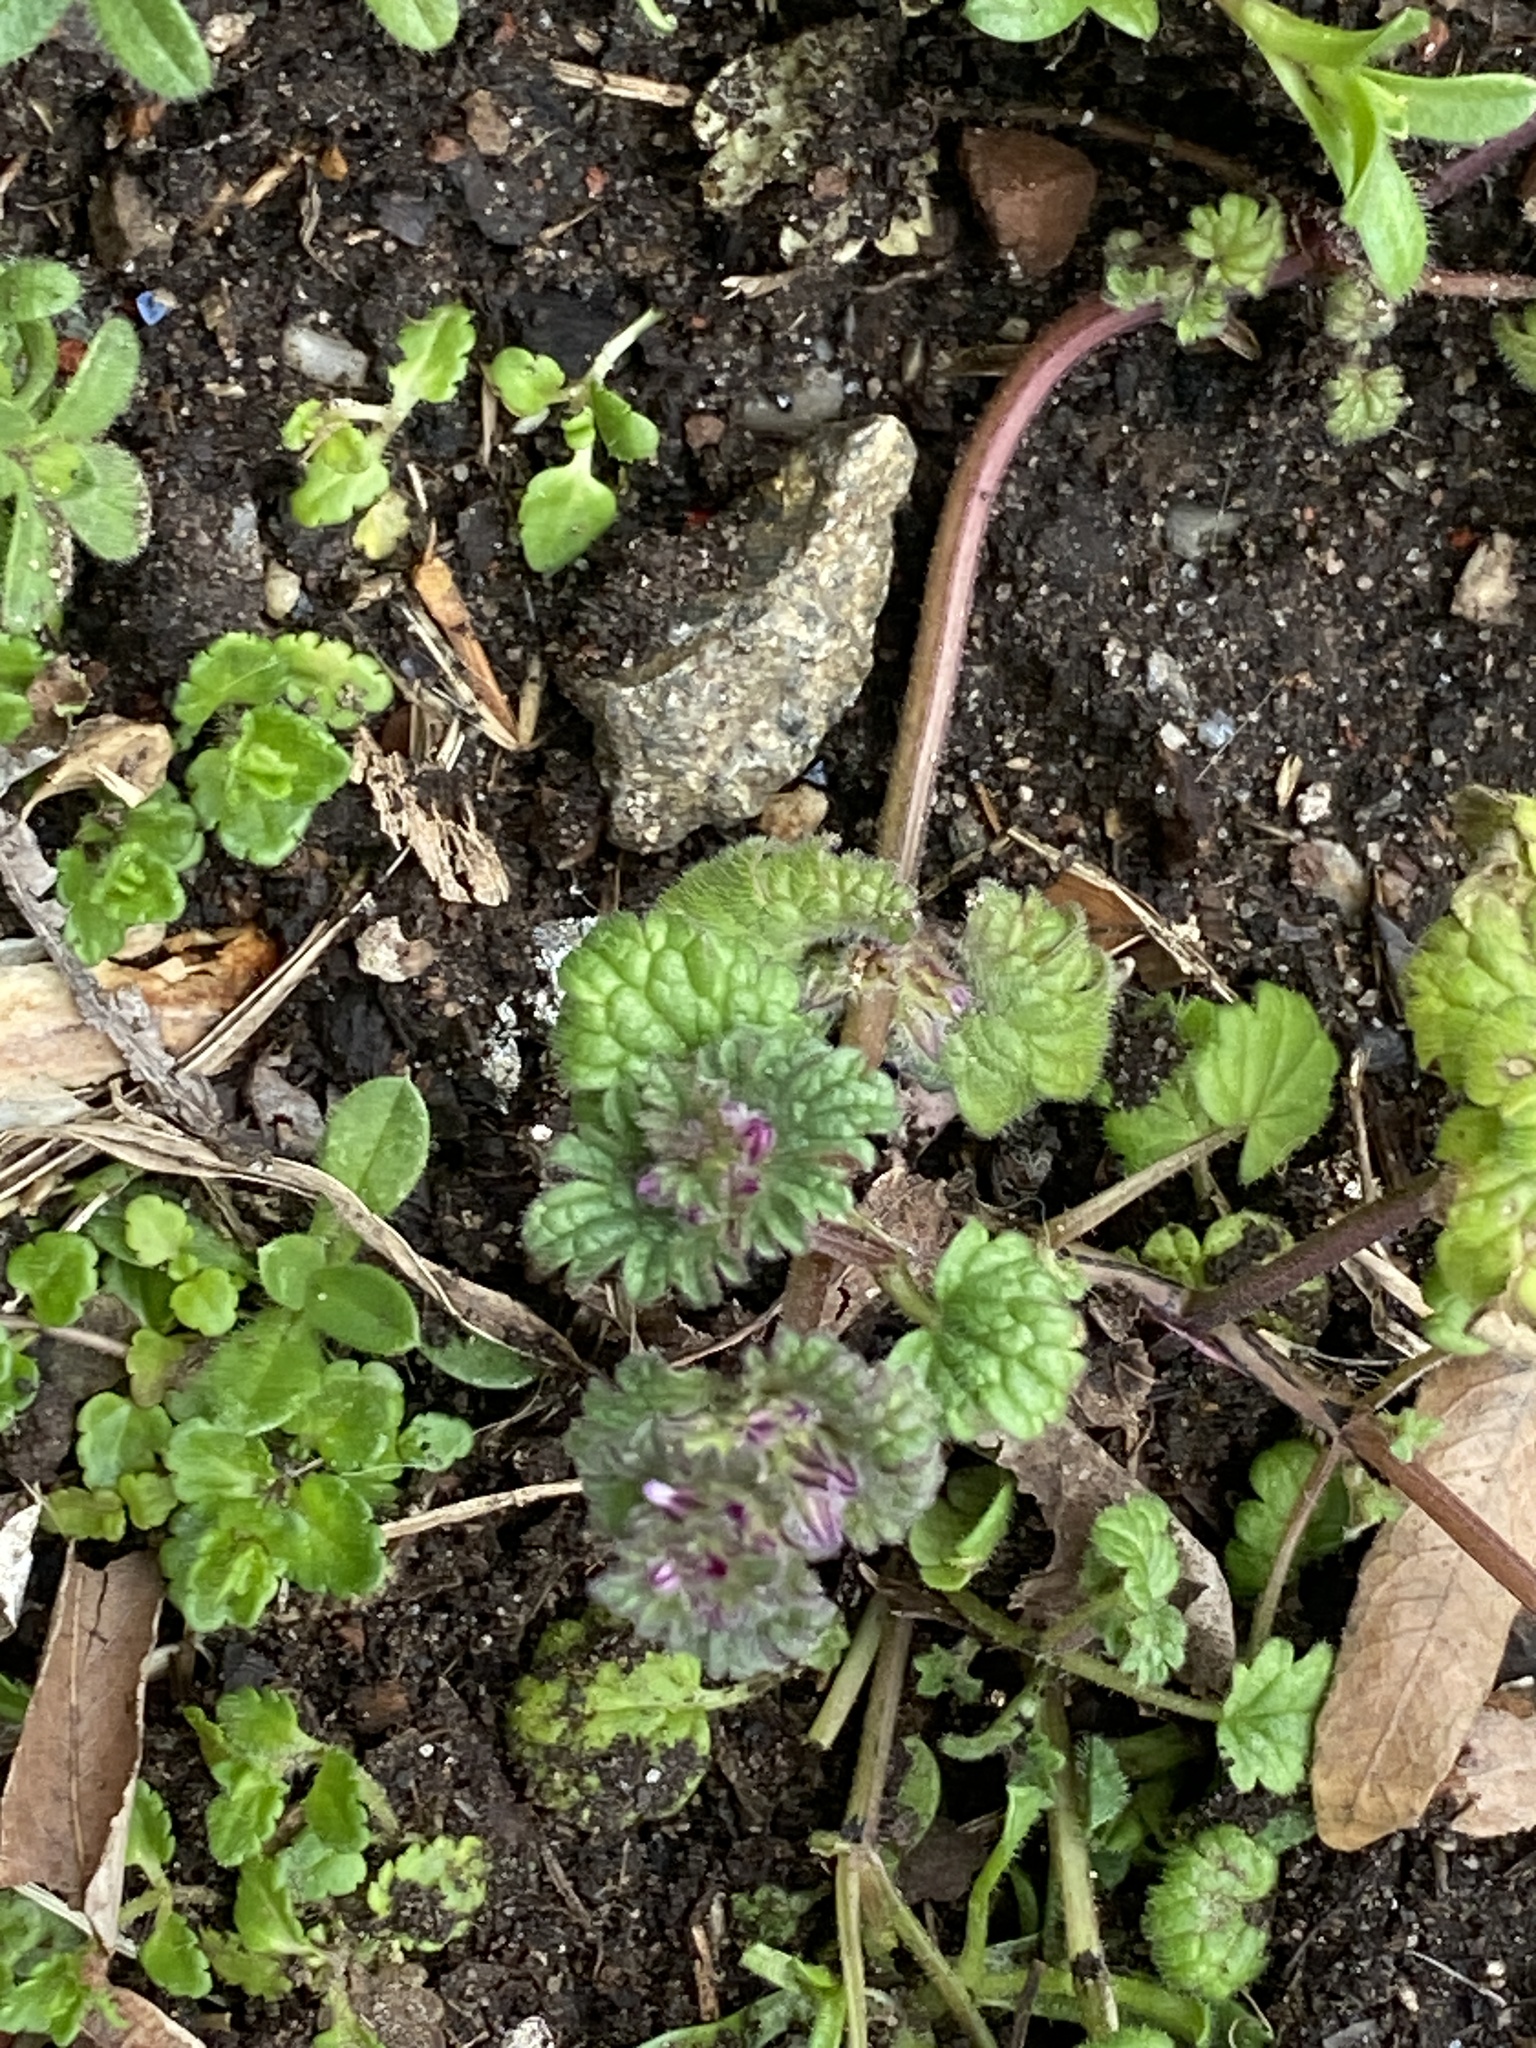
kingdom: Plantae
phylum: Tracheophyta
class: Magnoliopsida
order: Lamiales
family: Lamiaceae
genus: Lamium
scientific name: Lamium amplexicaule
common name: Henbit dead-nettle
